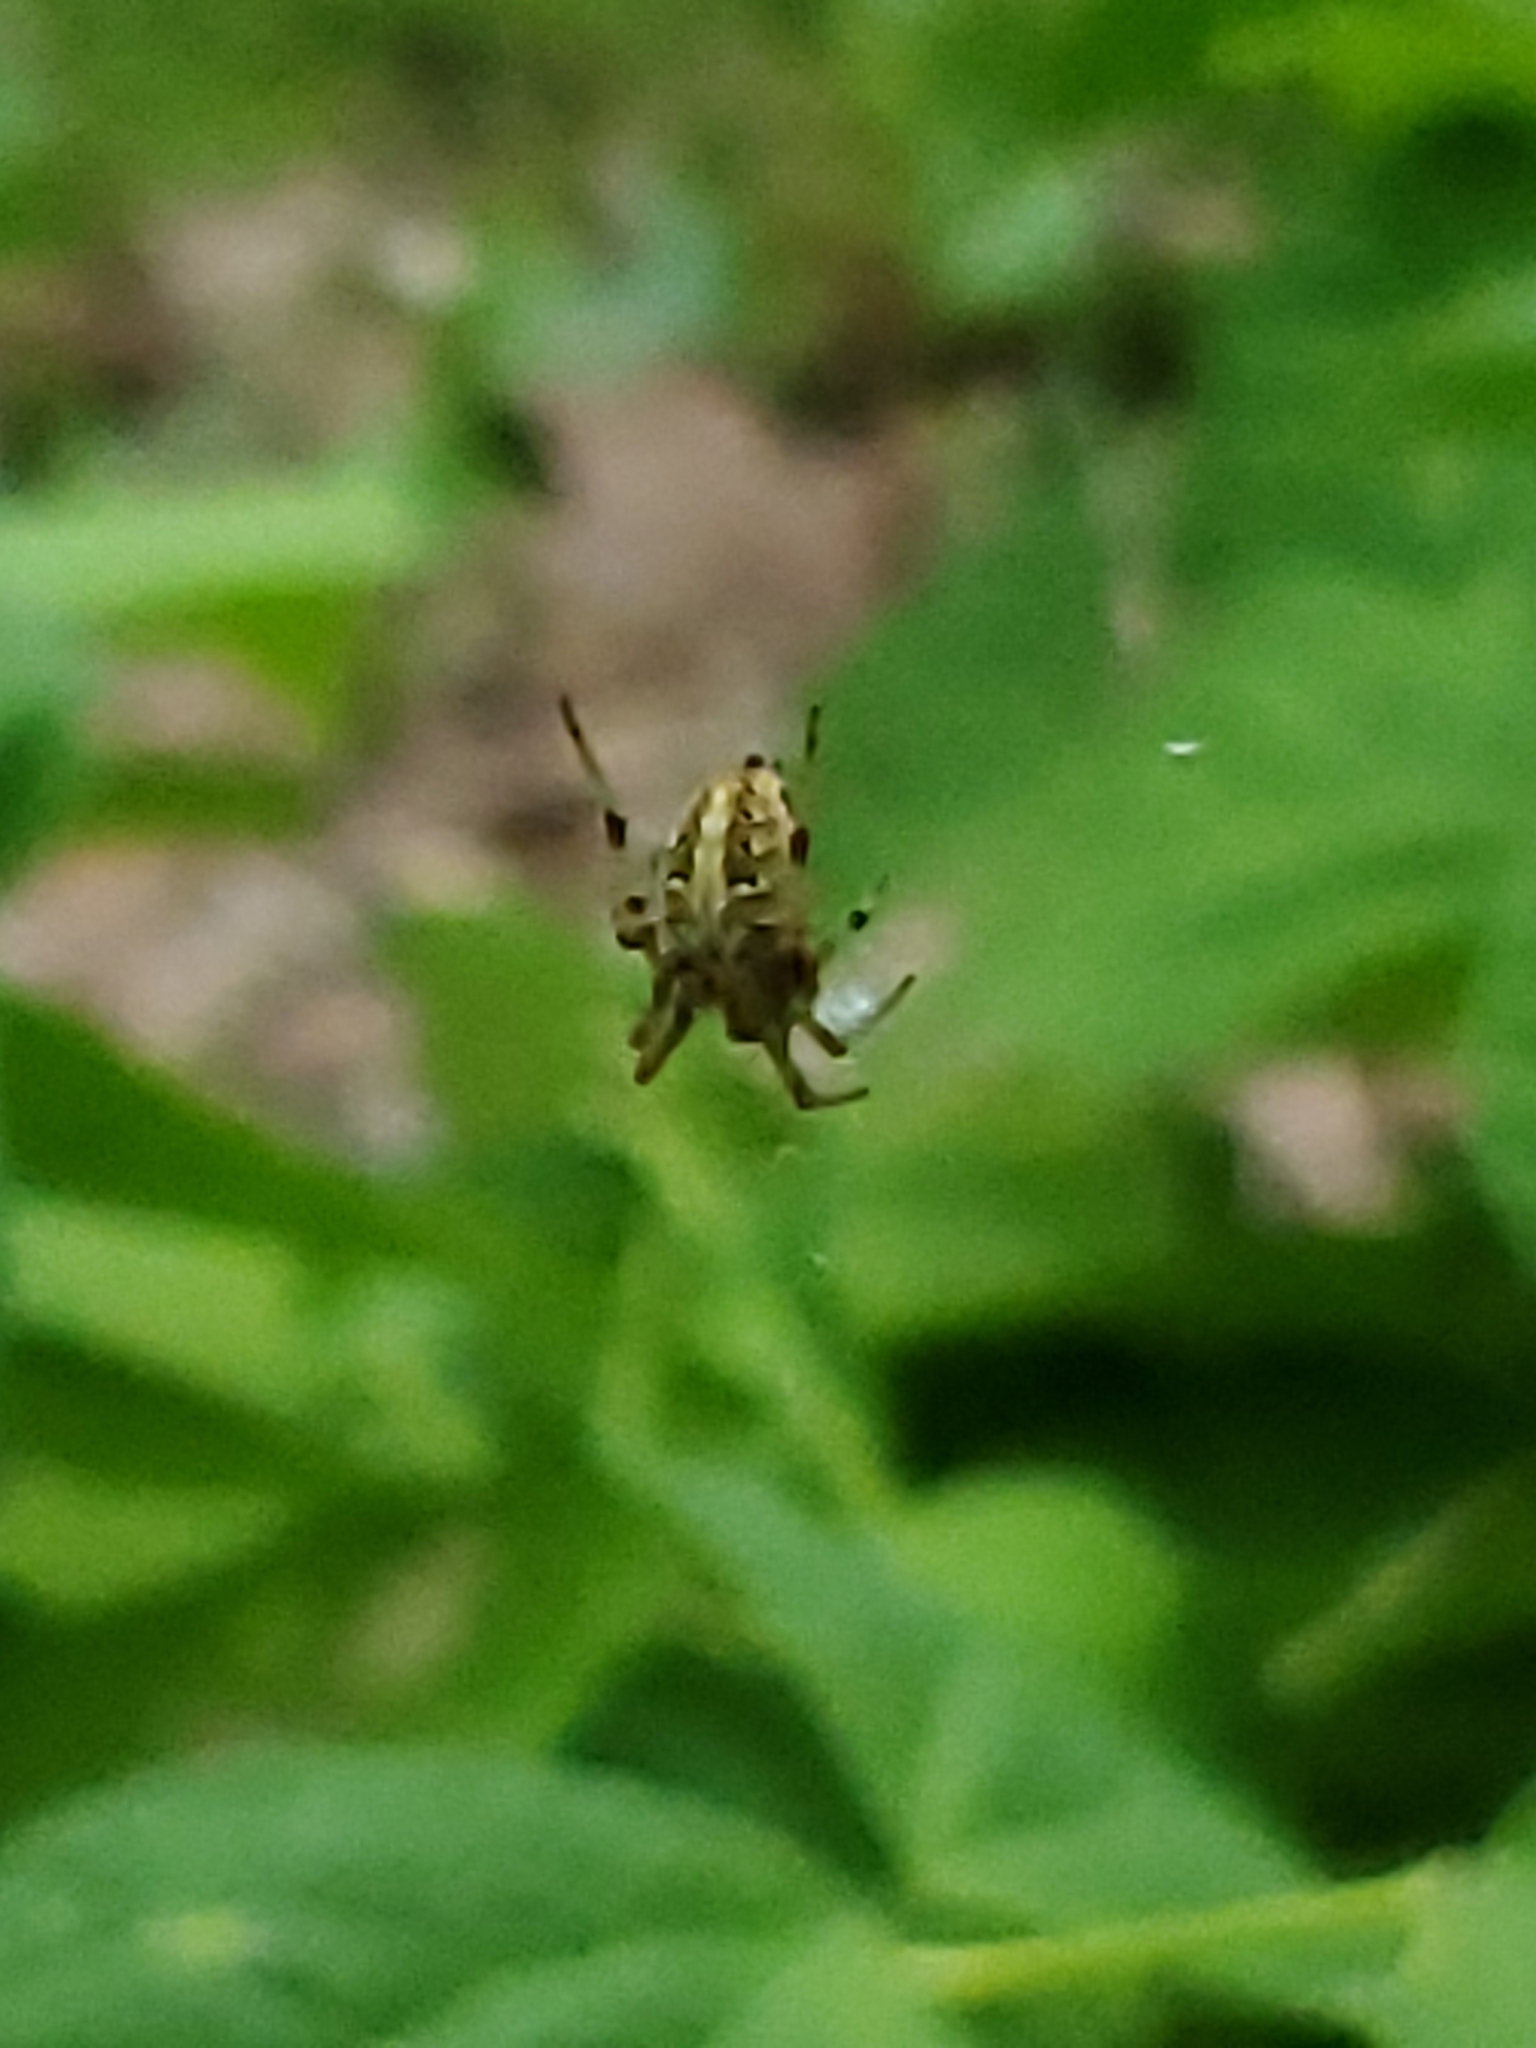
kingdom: Animalia
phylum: Arthropoda
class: Arachnida
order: Araneae
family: Araneidae
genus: Neoscona
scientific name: Neoscona arabesca
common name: Orb weavers
